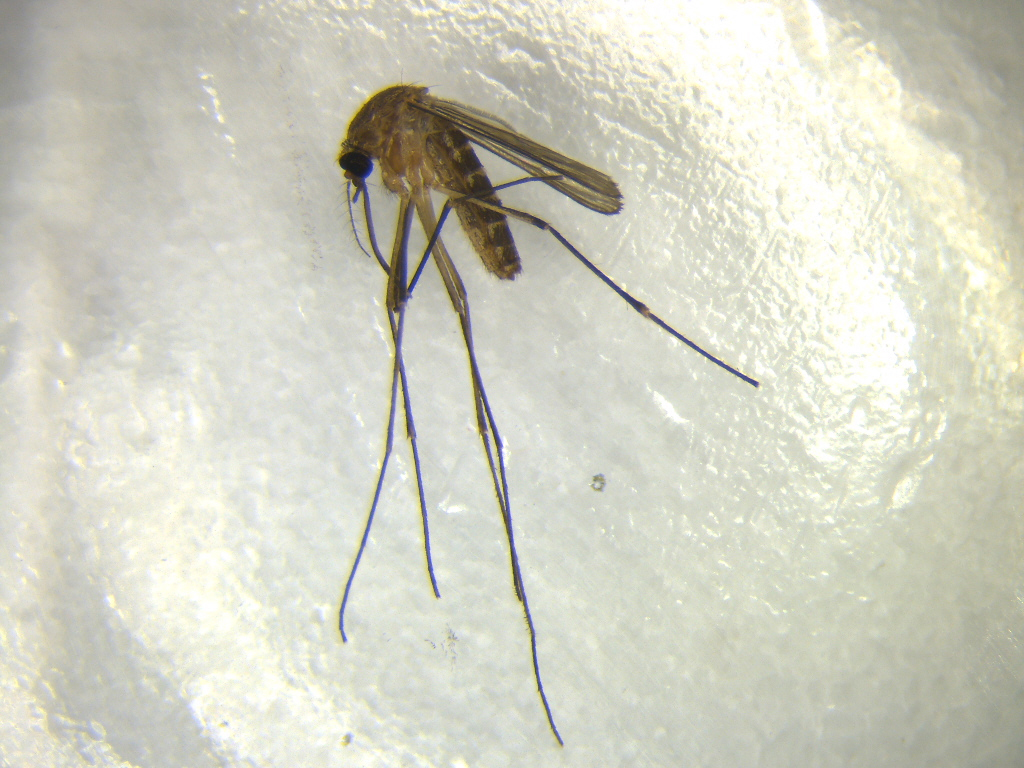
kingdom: Animalia
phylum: Arthropoda
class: Insecta
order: Diptera
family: Culicidae
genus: Culex
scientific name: Culex quinquefasciatus
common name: Southern house mosquito
